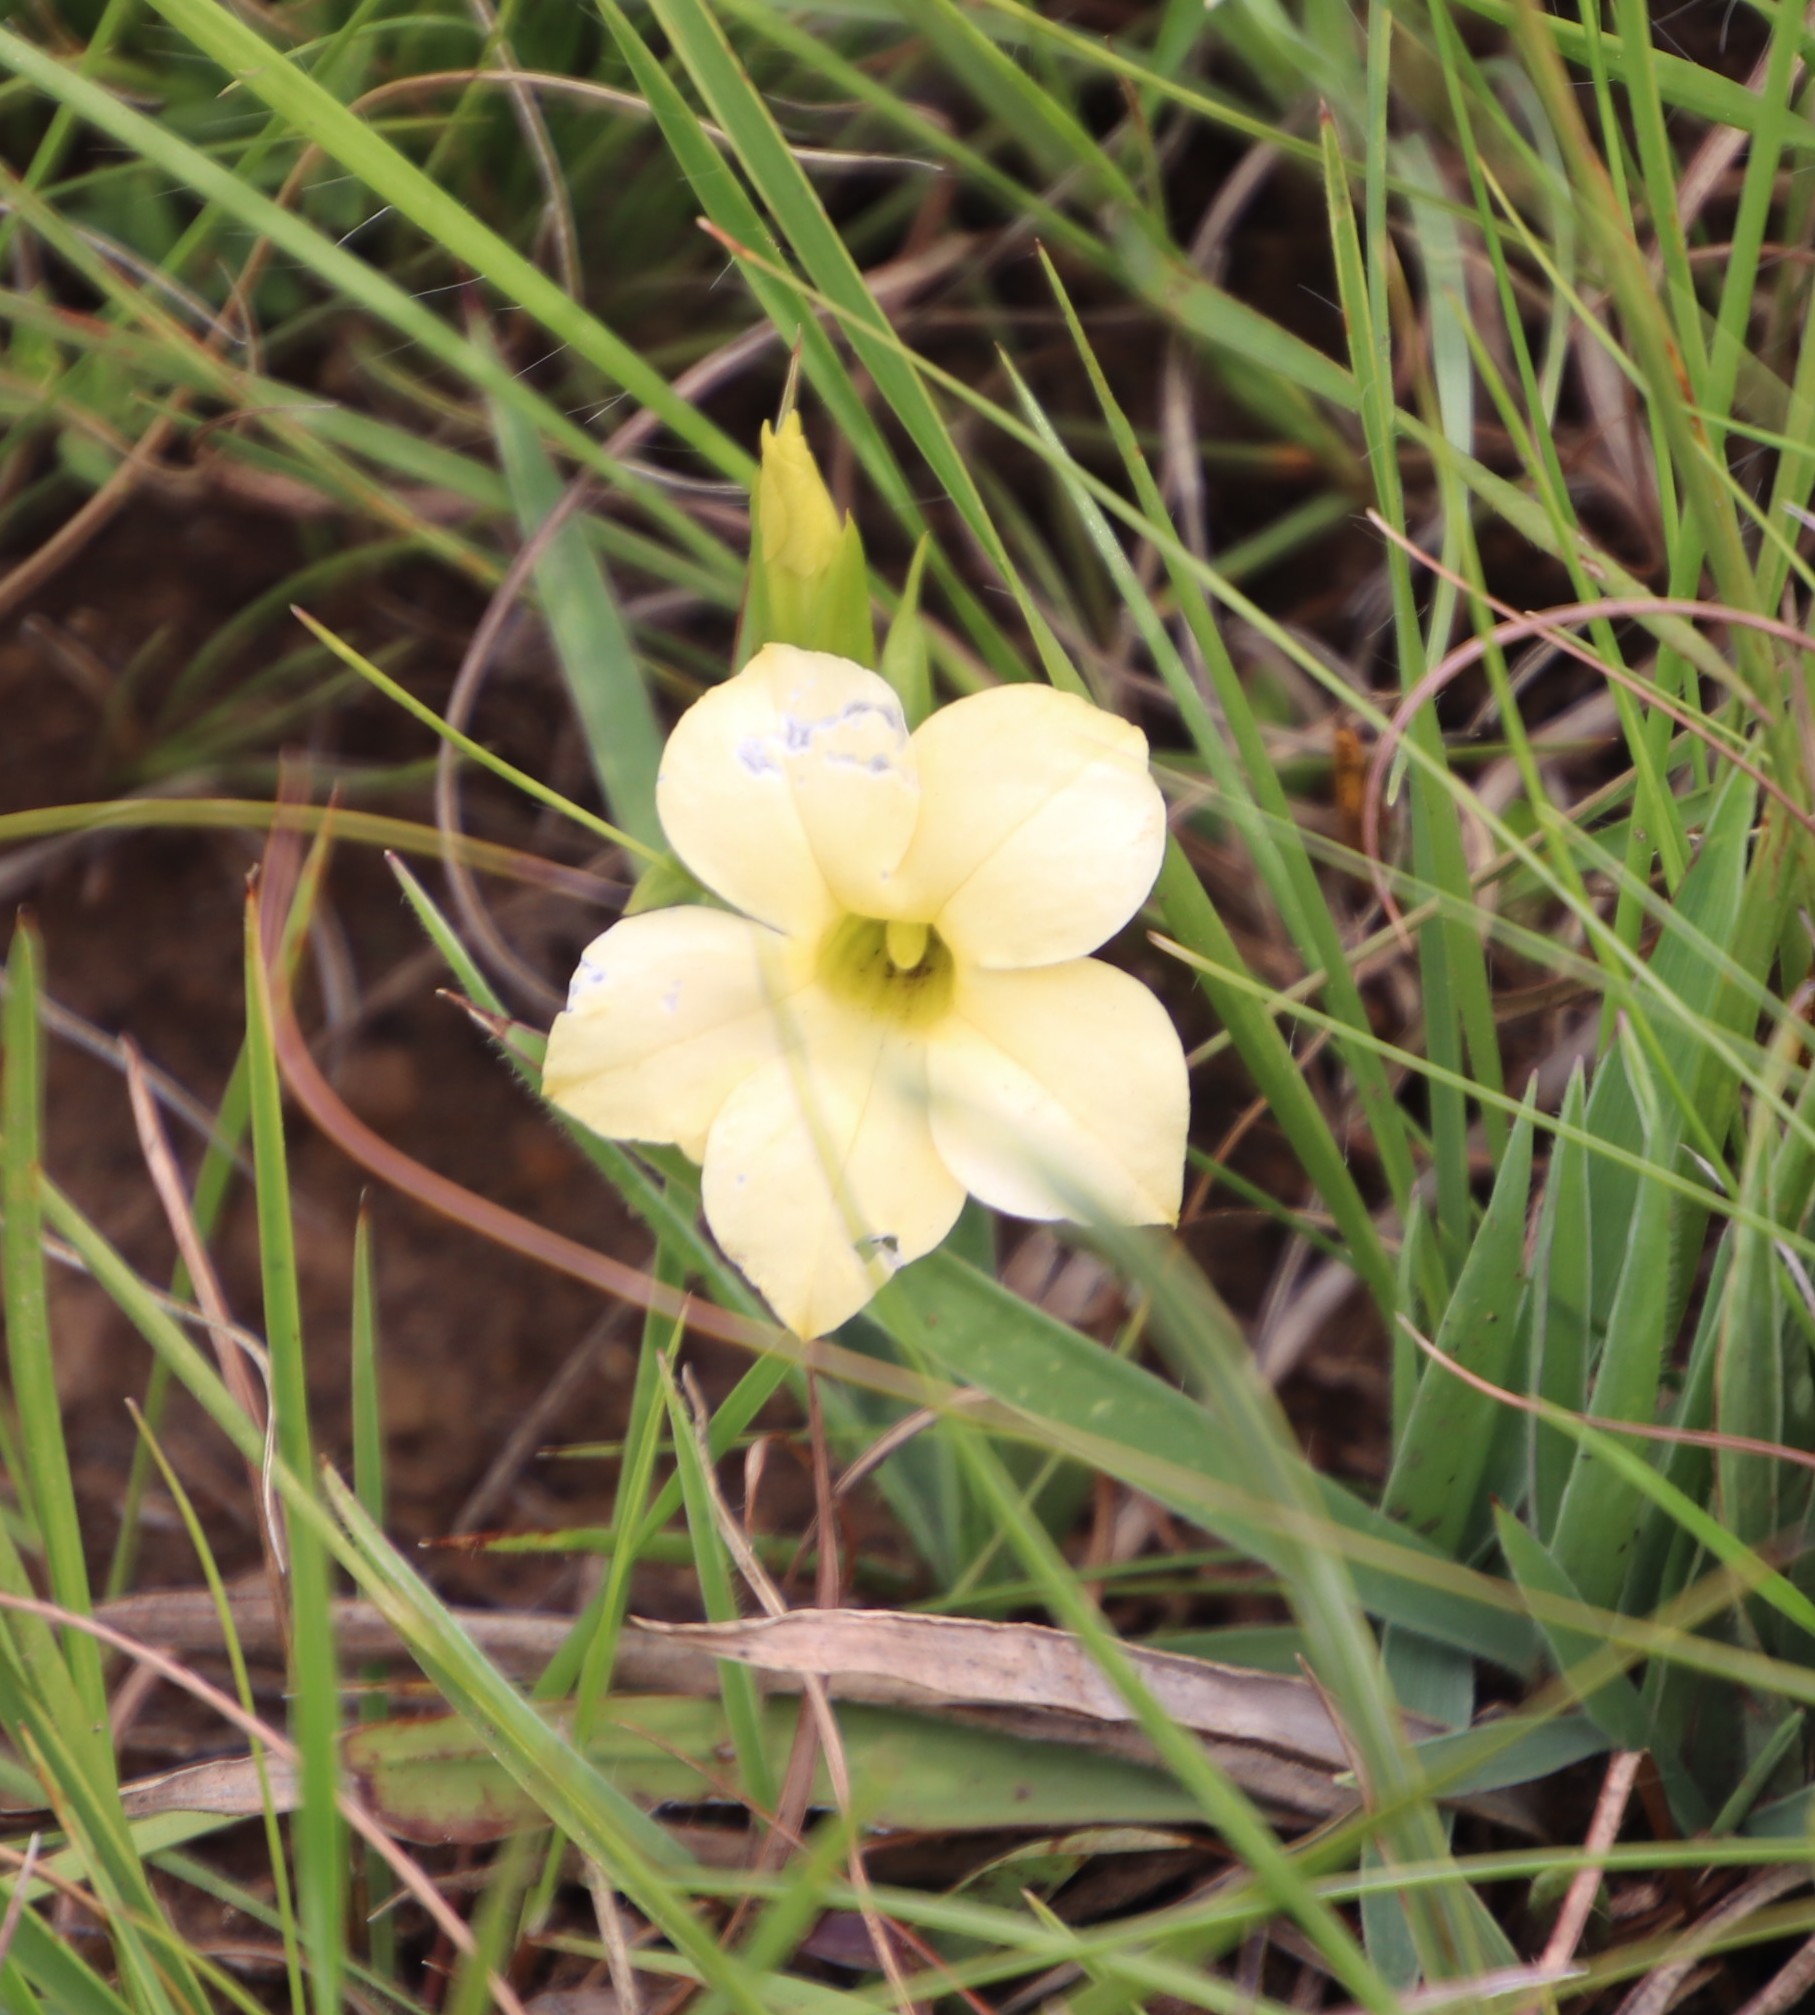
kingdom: Plantae
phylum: Tracheophyta
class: Magnoliopsida
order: Gentianales
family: Gentianaceae
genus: Exochaenium
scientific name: Exochaenium grande
